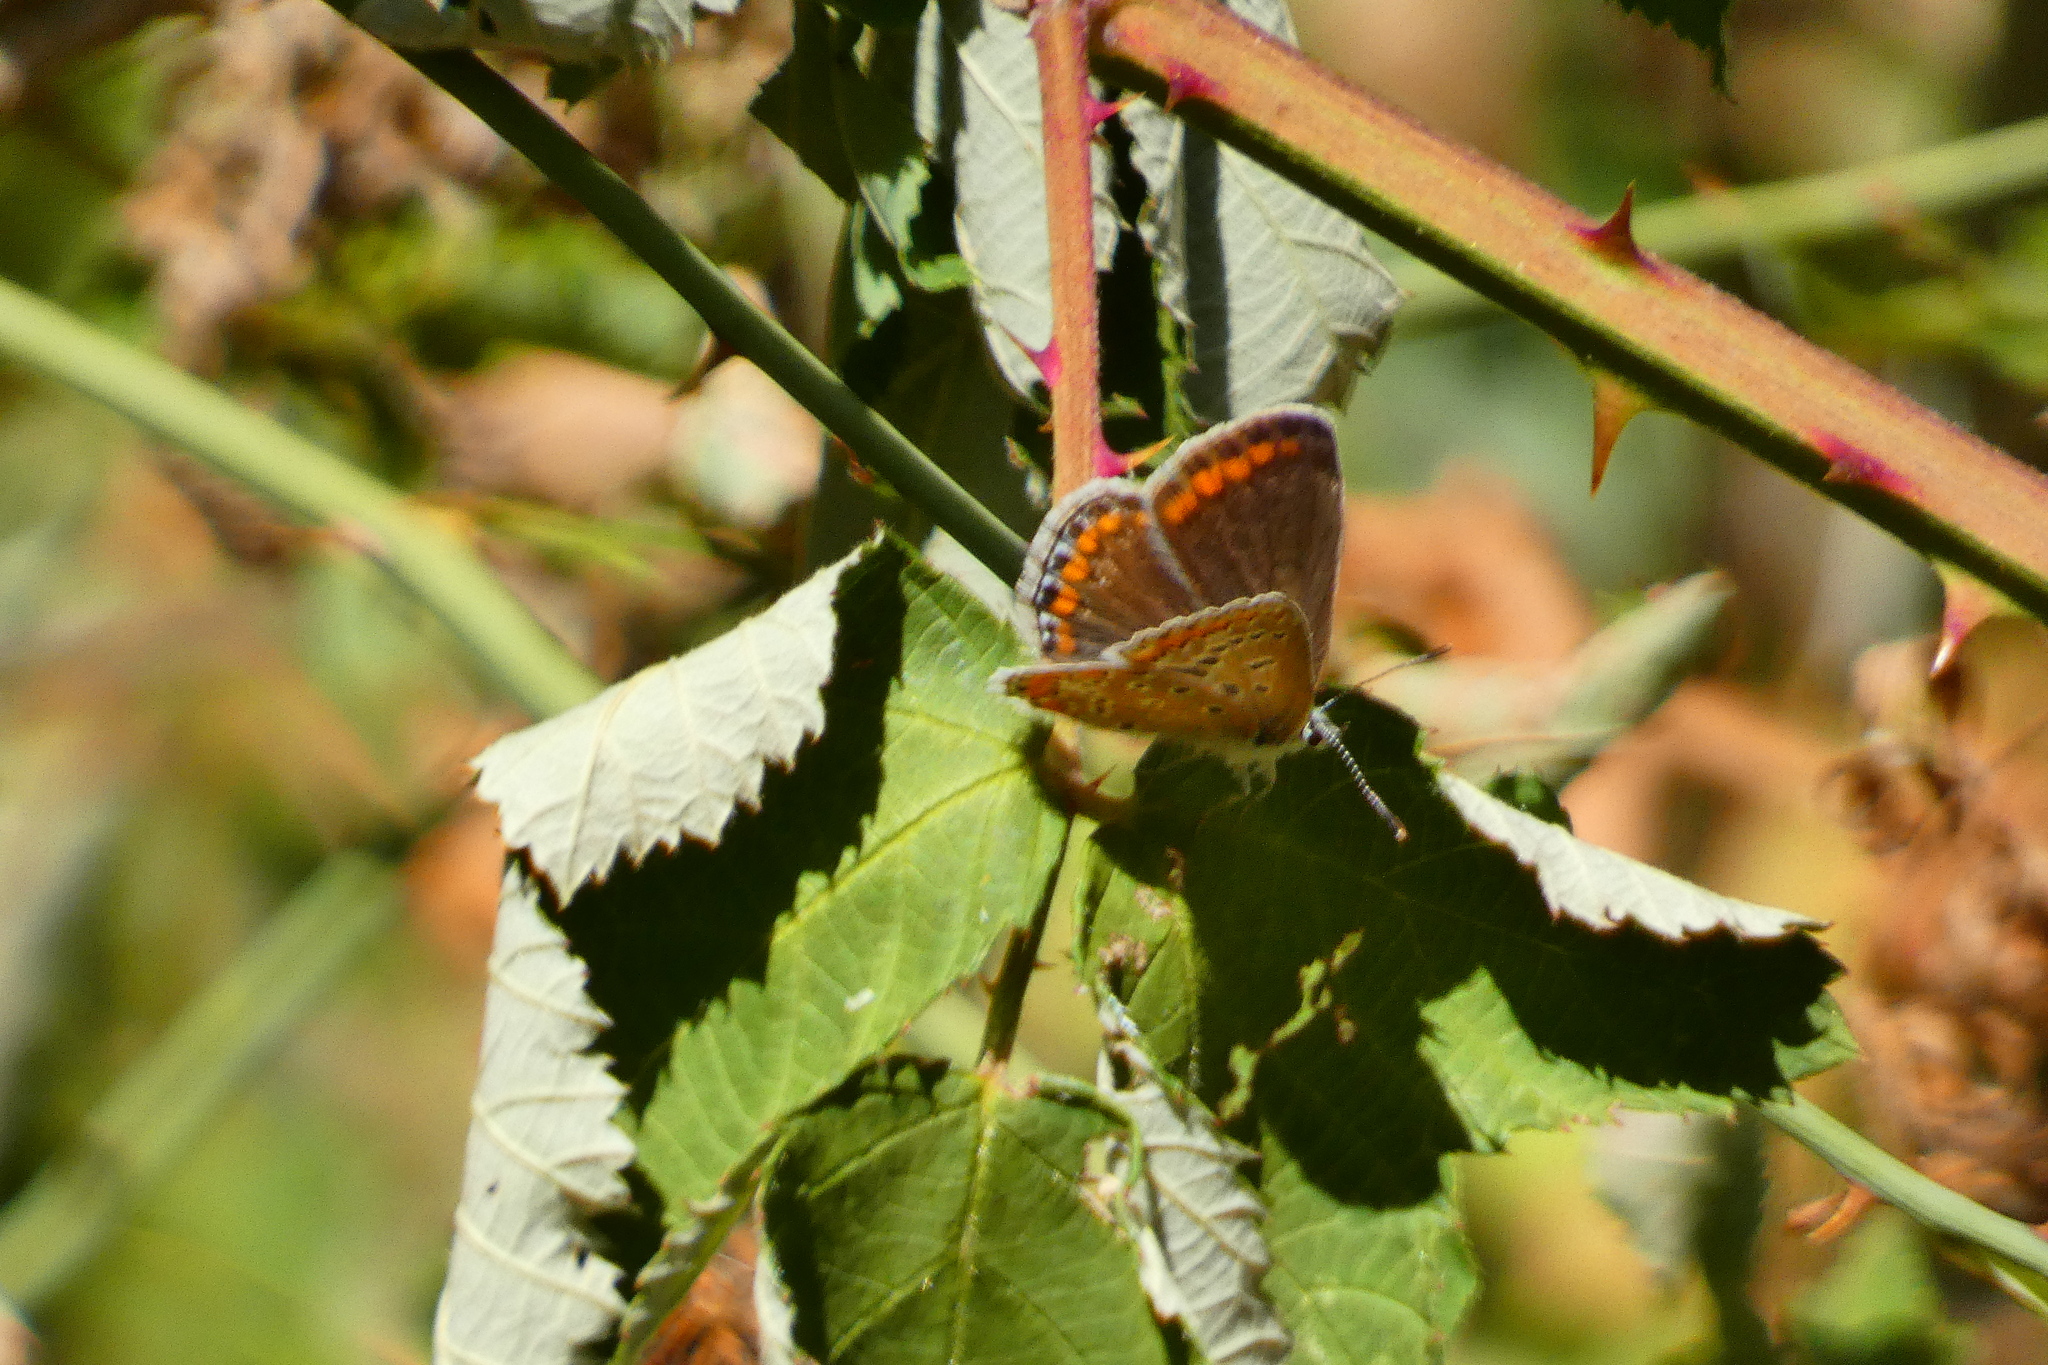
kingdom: Animalia
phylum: Arthropoda
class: Insecta
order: Lepidoptera
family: Lycaenidae
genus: Polyommatus
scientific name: Polyommatus icarus
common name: Common blue
